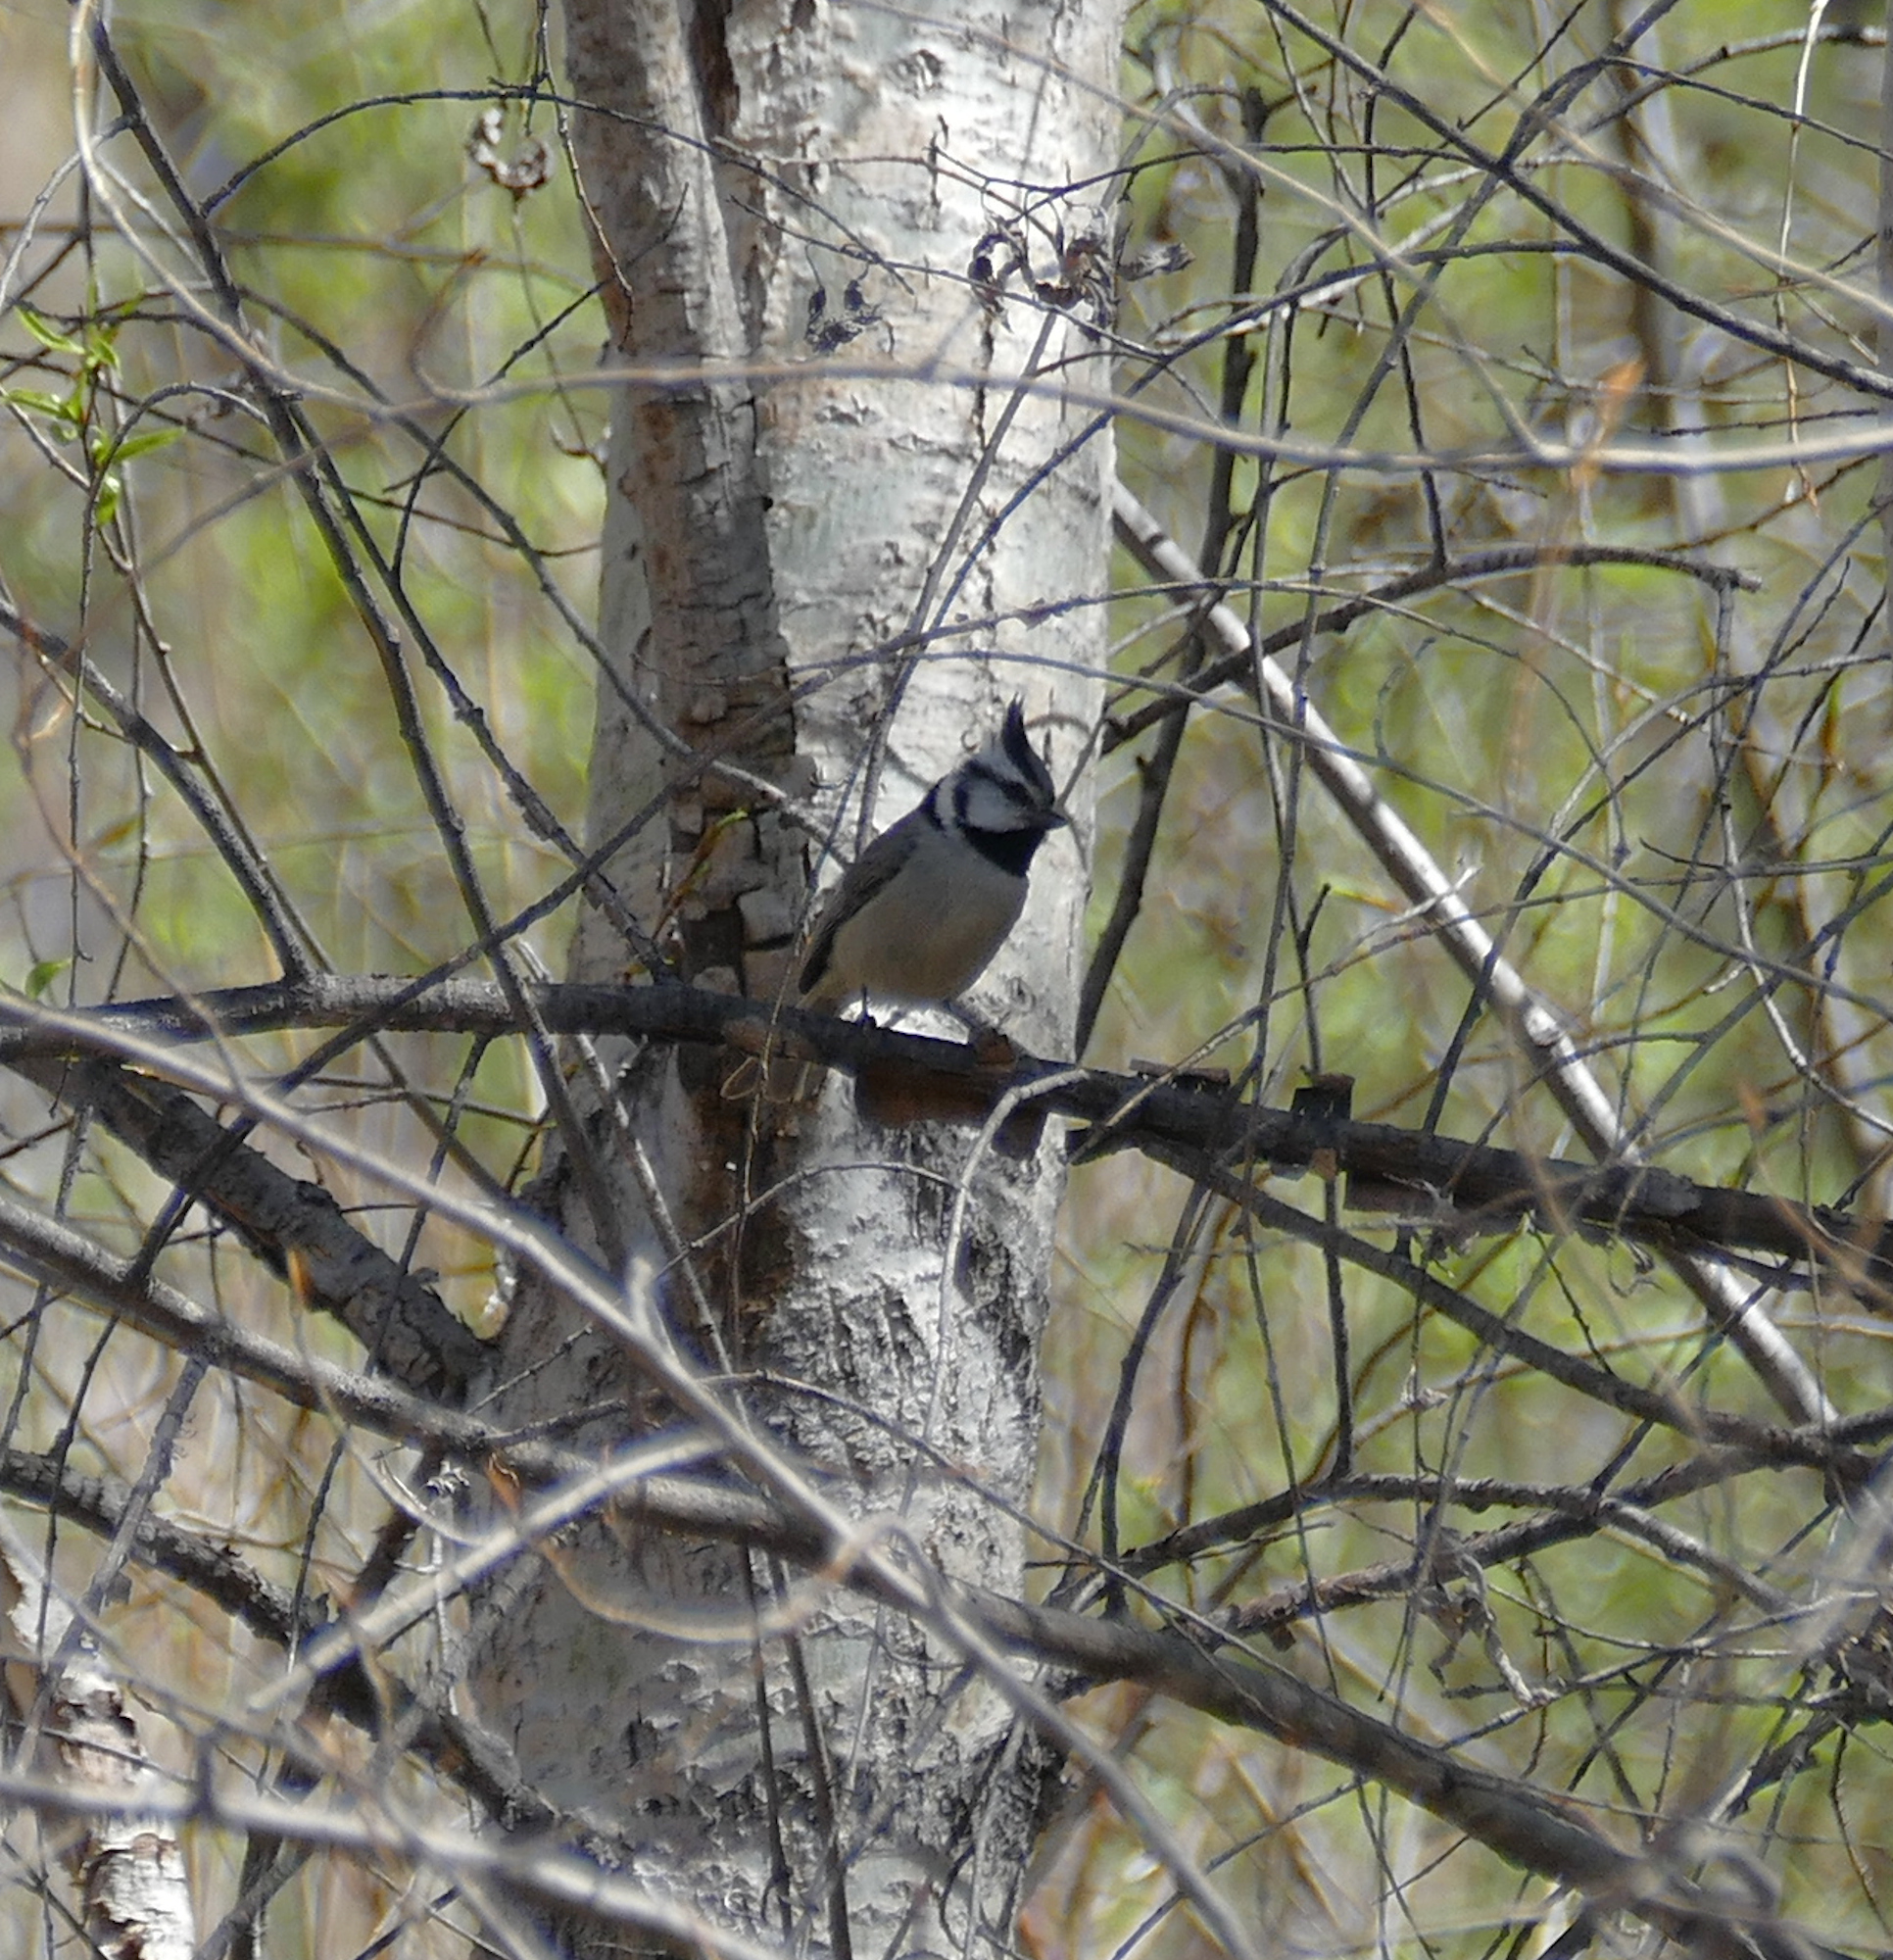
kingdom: Animalia
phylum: Chordata
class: Aves
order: Passeriformes
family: Paridae
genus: Baeolophus
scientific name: Baeolophus wollweberi
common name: Bridled titmouse
